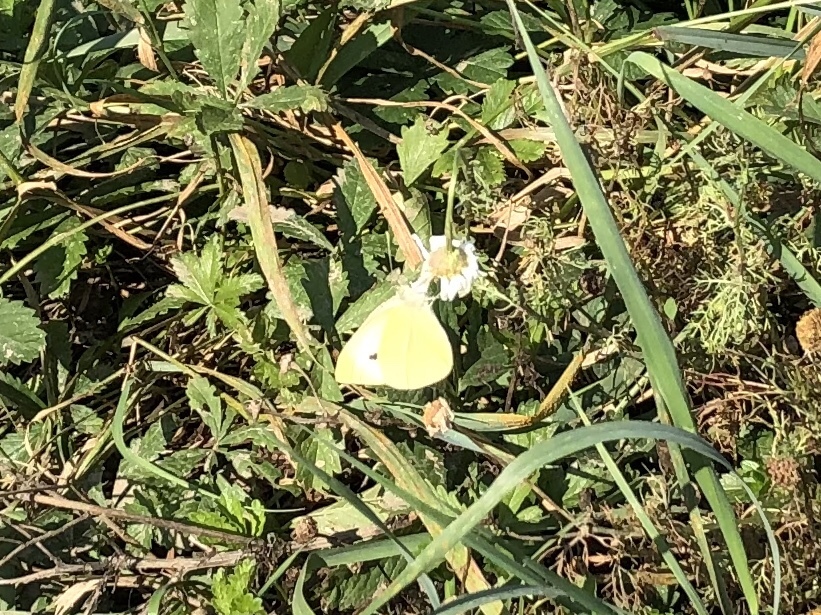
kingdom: Animalia
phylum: Arthropoda
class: Insecta
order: Lepidoptera
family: Pieridae
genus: Pieris
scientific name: Pieris rapae
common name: Small white
